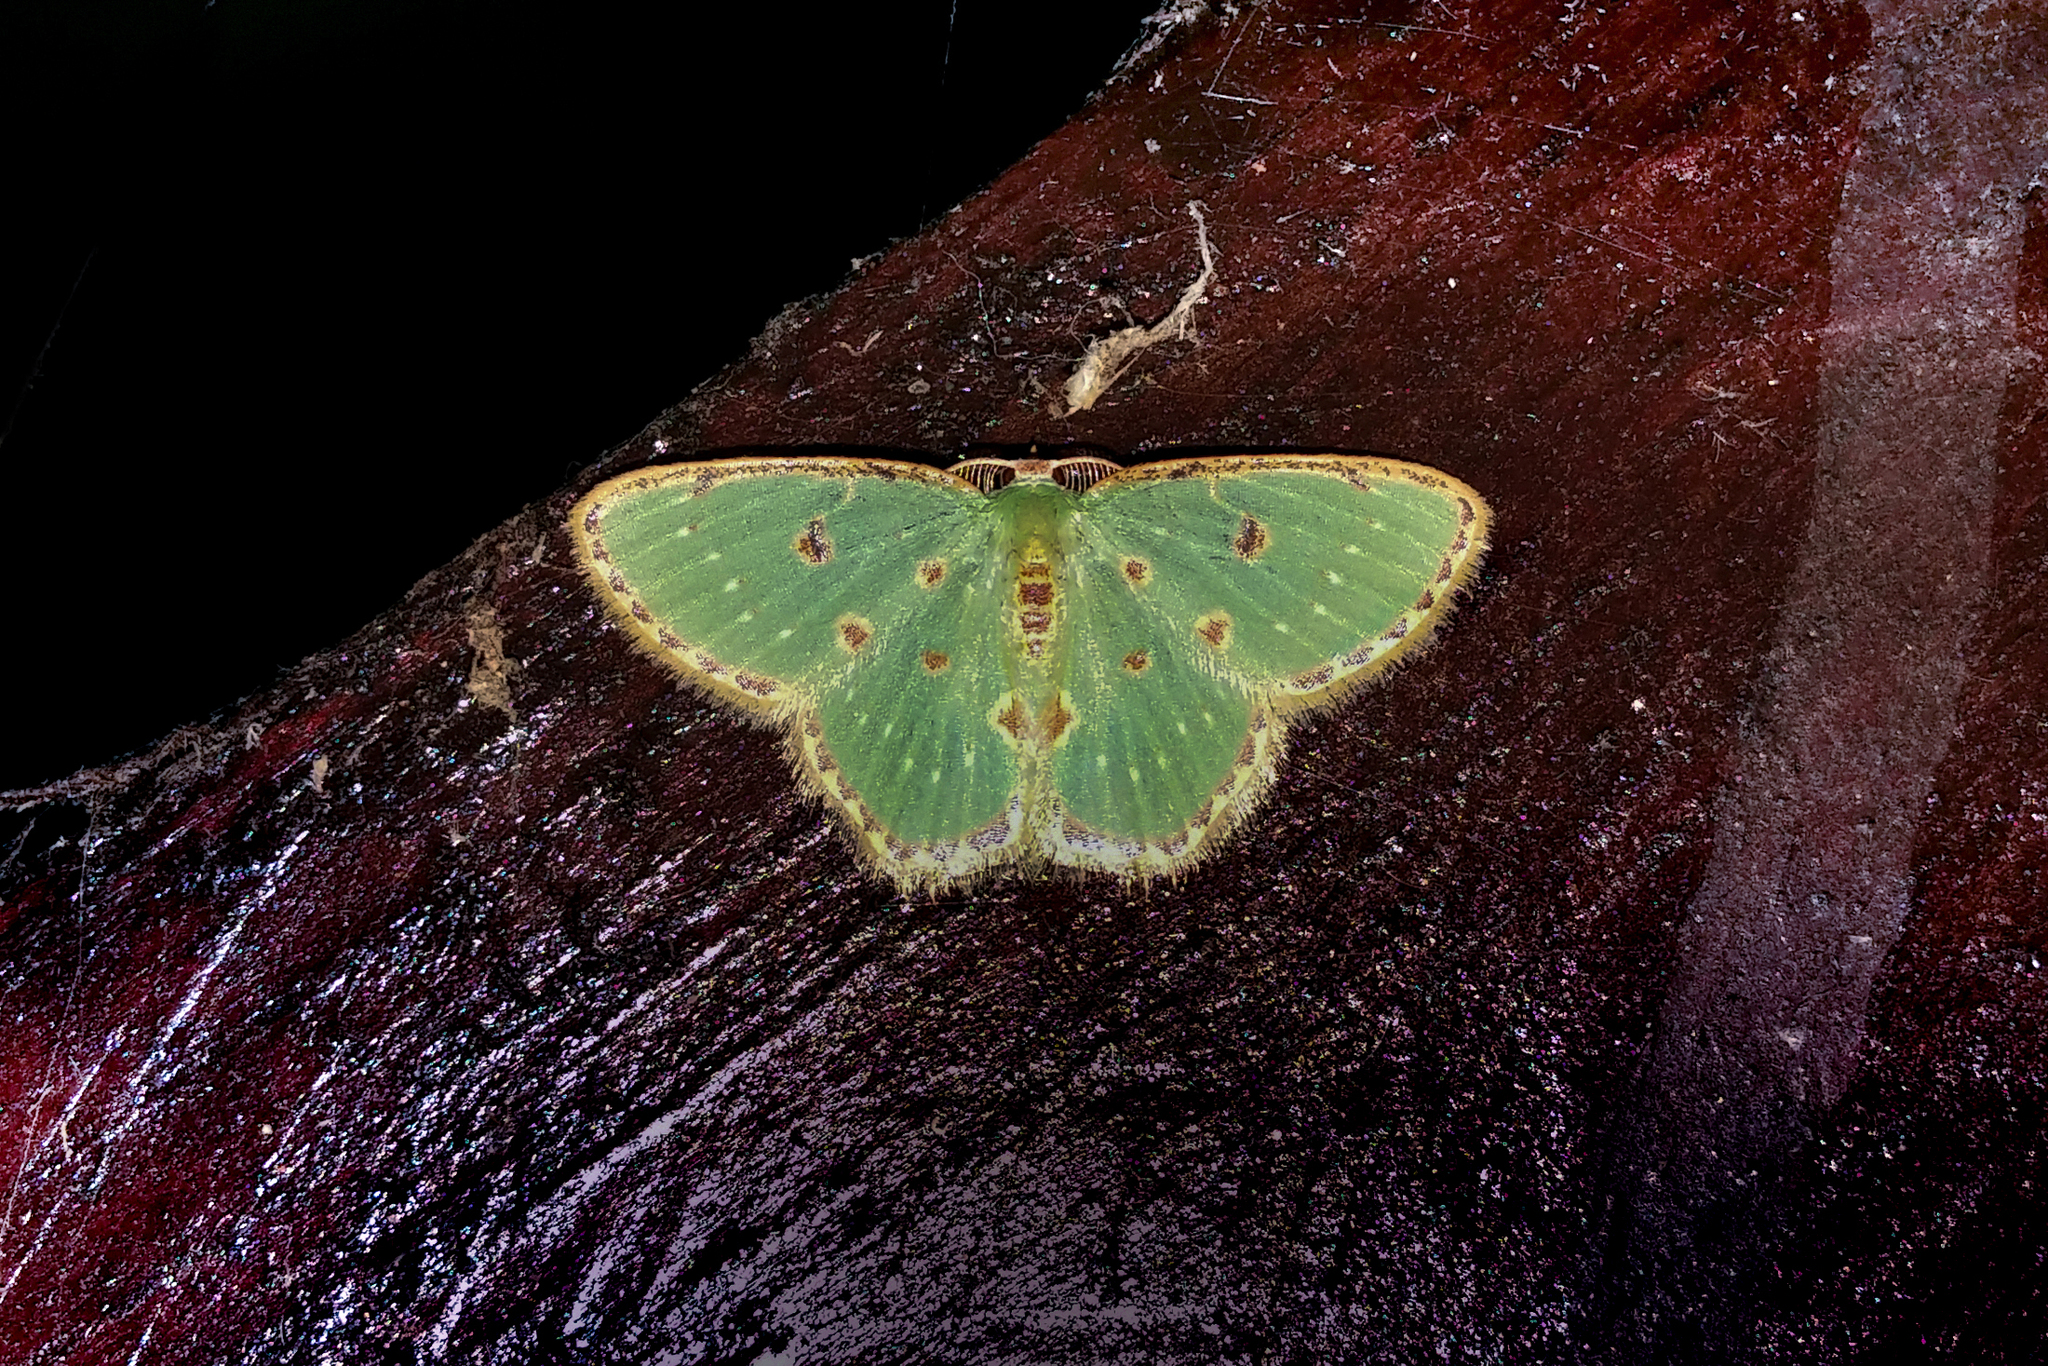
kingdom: Animalia
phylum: Arthropoda
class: Insecta
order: Lepidoptera
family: Geometridae
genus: Comostola
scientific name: Comostola rufimargo
